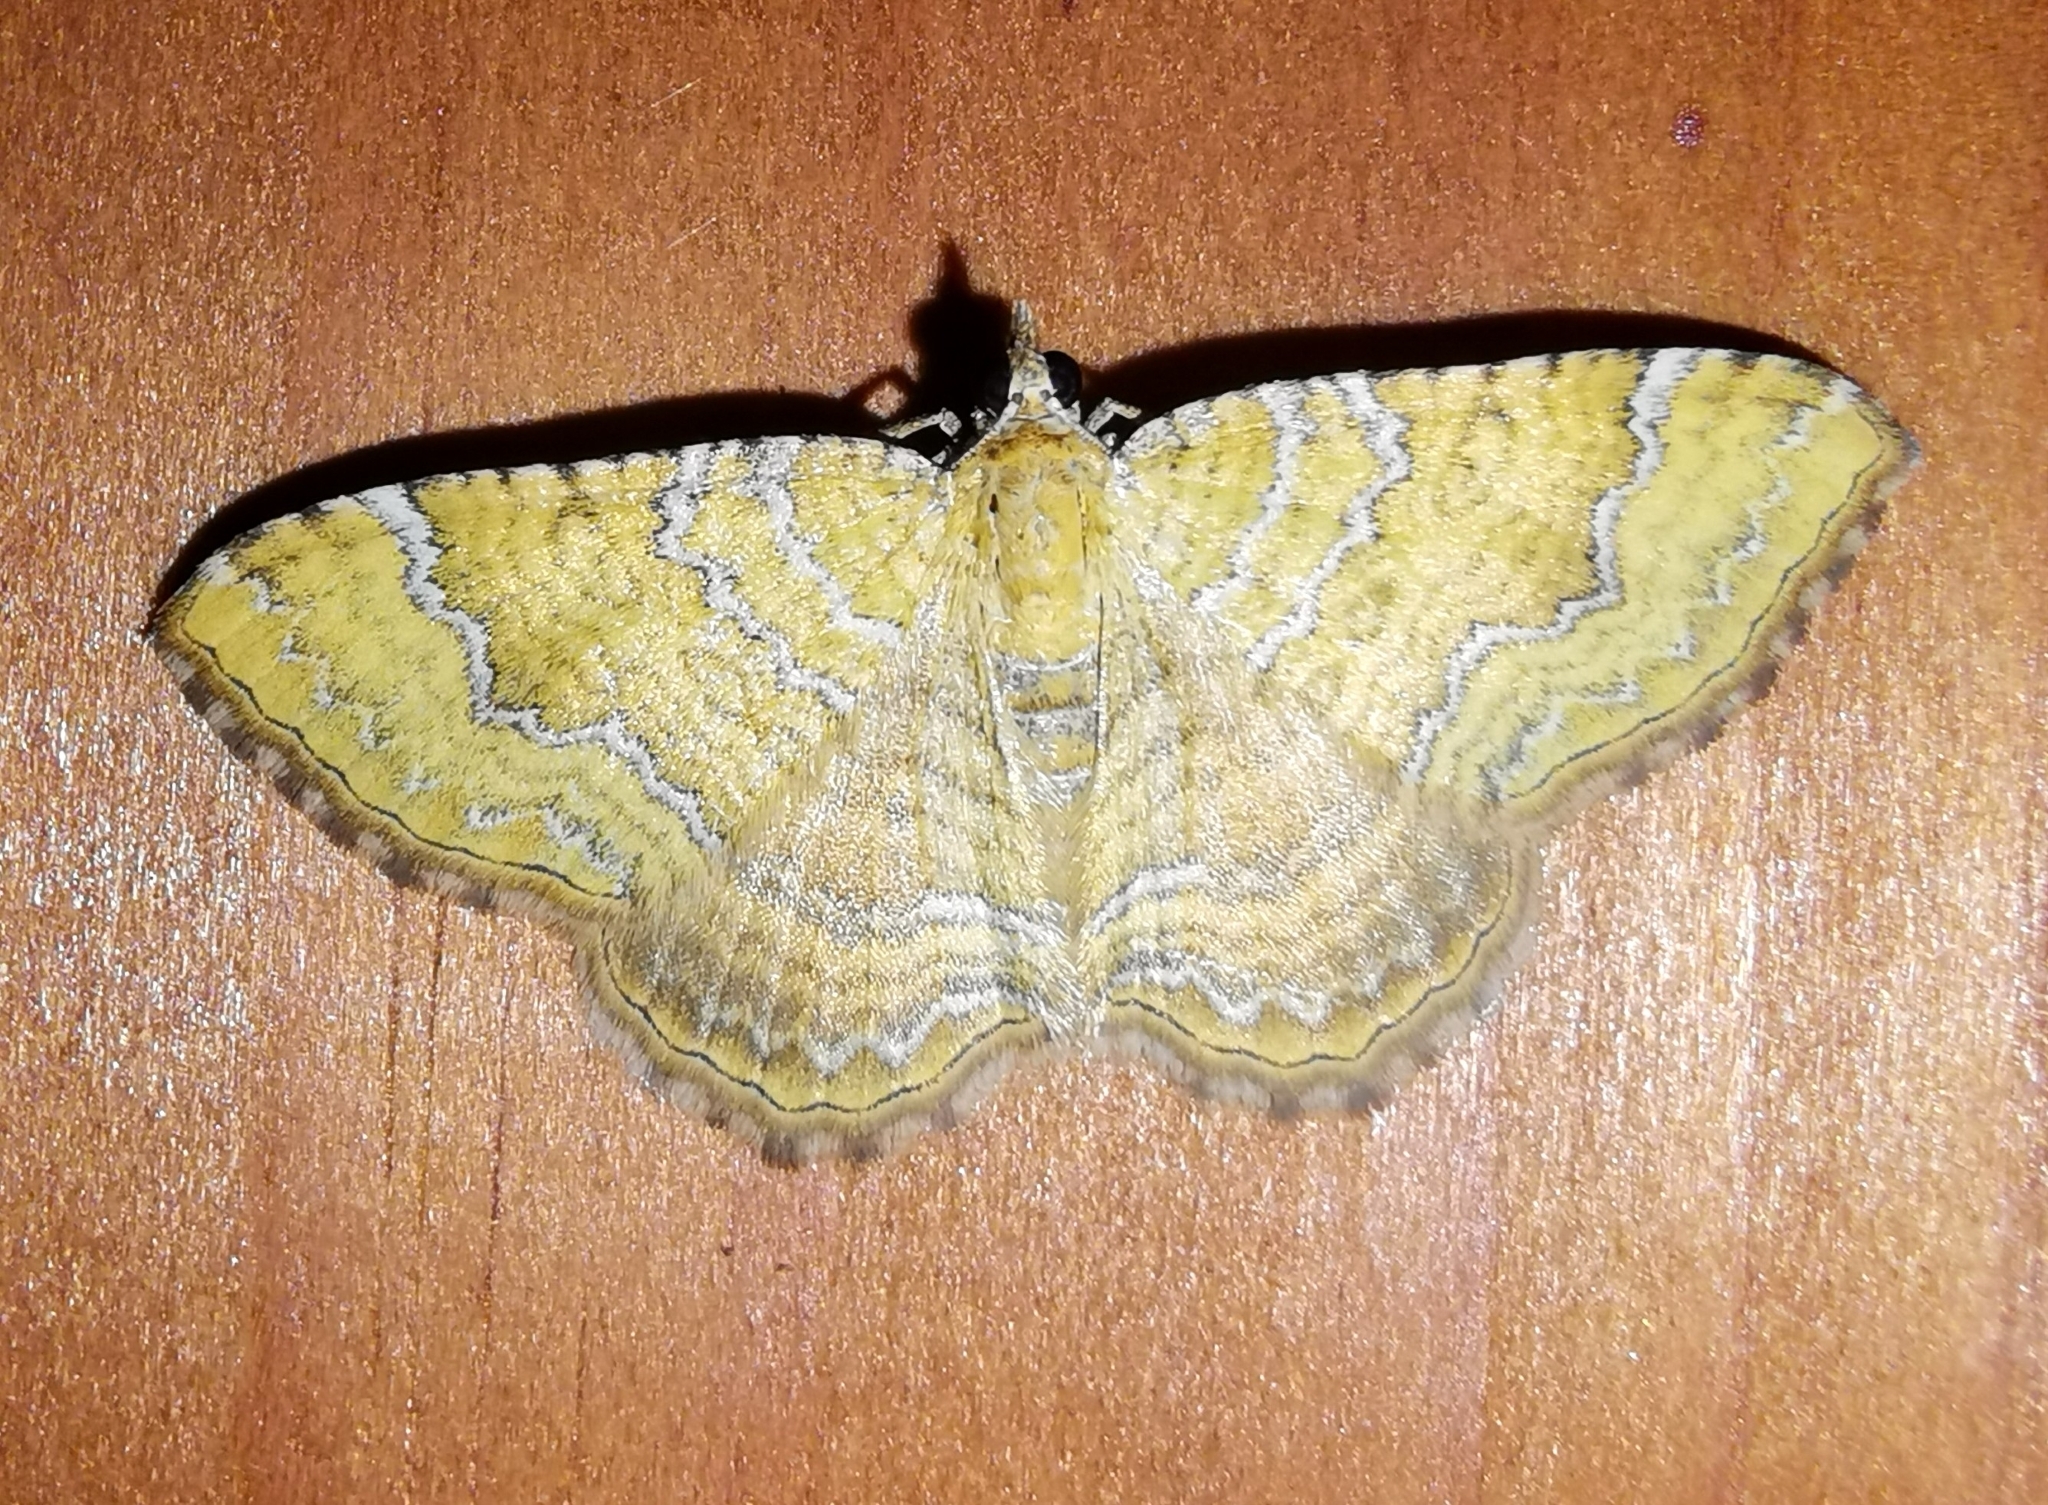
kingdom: Animalia
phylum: Arthropoda
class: Insecta
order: Lepidoptera
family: Geometridae
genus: Camptogramma
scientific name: Camptogramma bilineata
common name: Yellow shell
